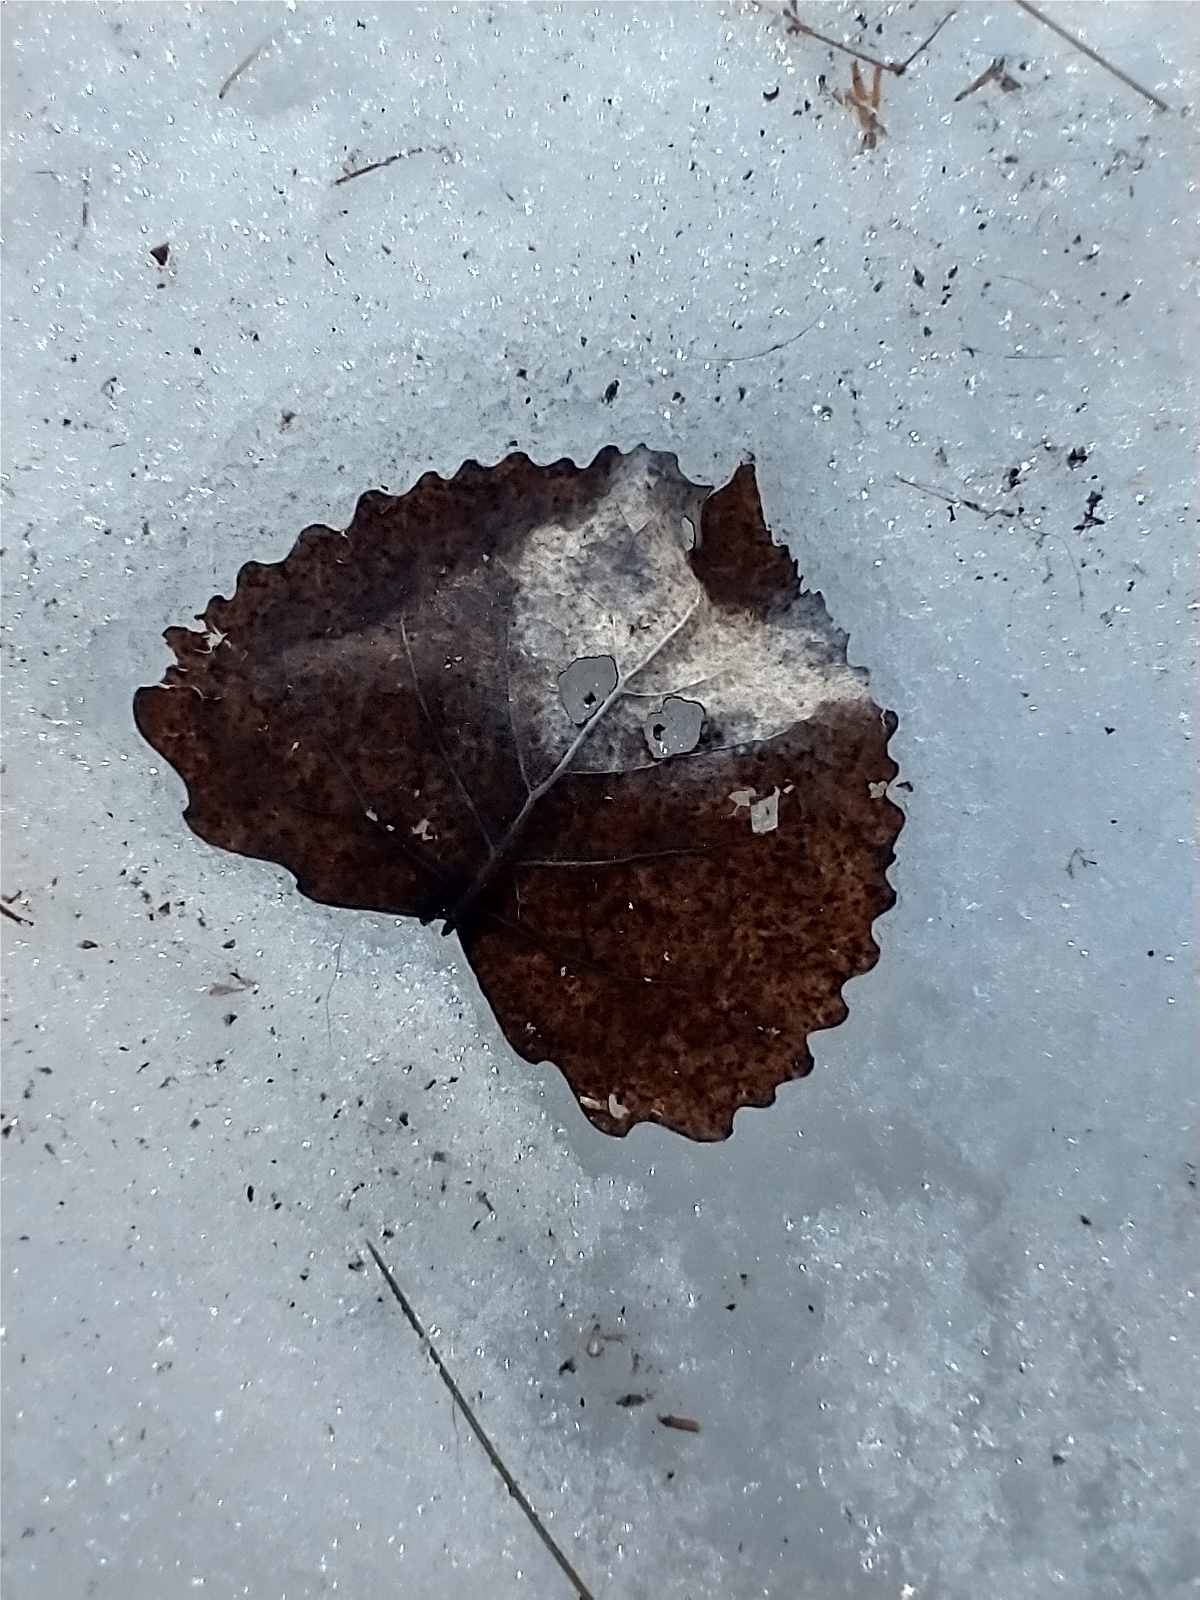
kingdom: Plantae
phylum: Tracheophyta
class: Magnoliopsida
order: Malpighiales
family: Salicaceae
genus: Populus
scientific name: Populus deltoides
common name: Eastern cottonwood
